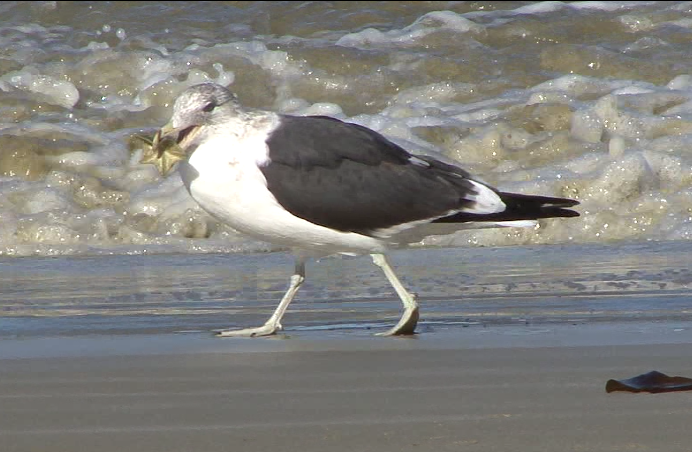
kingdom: Animalia
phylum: Echinodermata
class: Asteroidea
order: Valvatida
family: Asterinidae
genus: Patiriella
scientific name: Patiriella regularis
